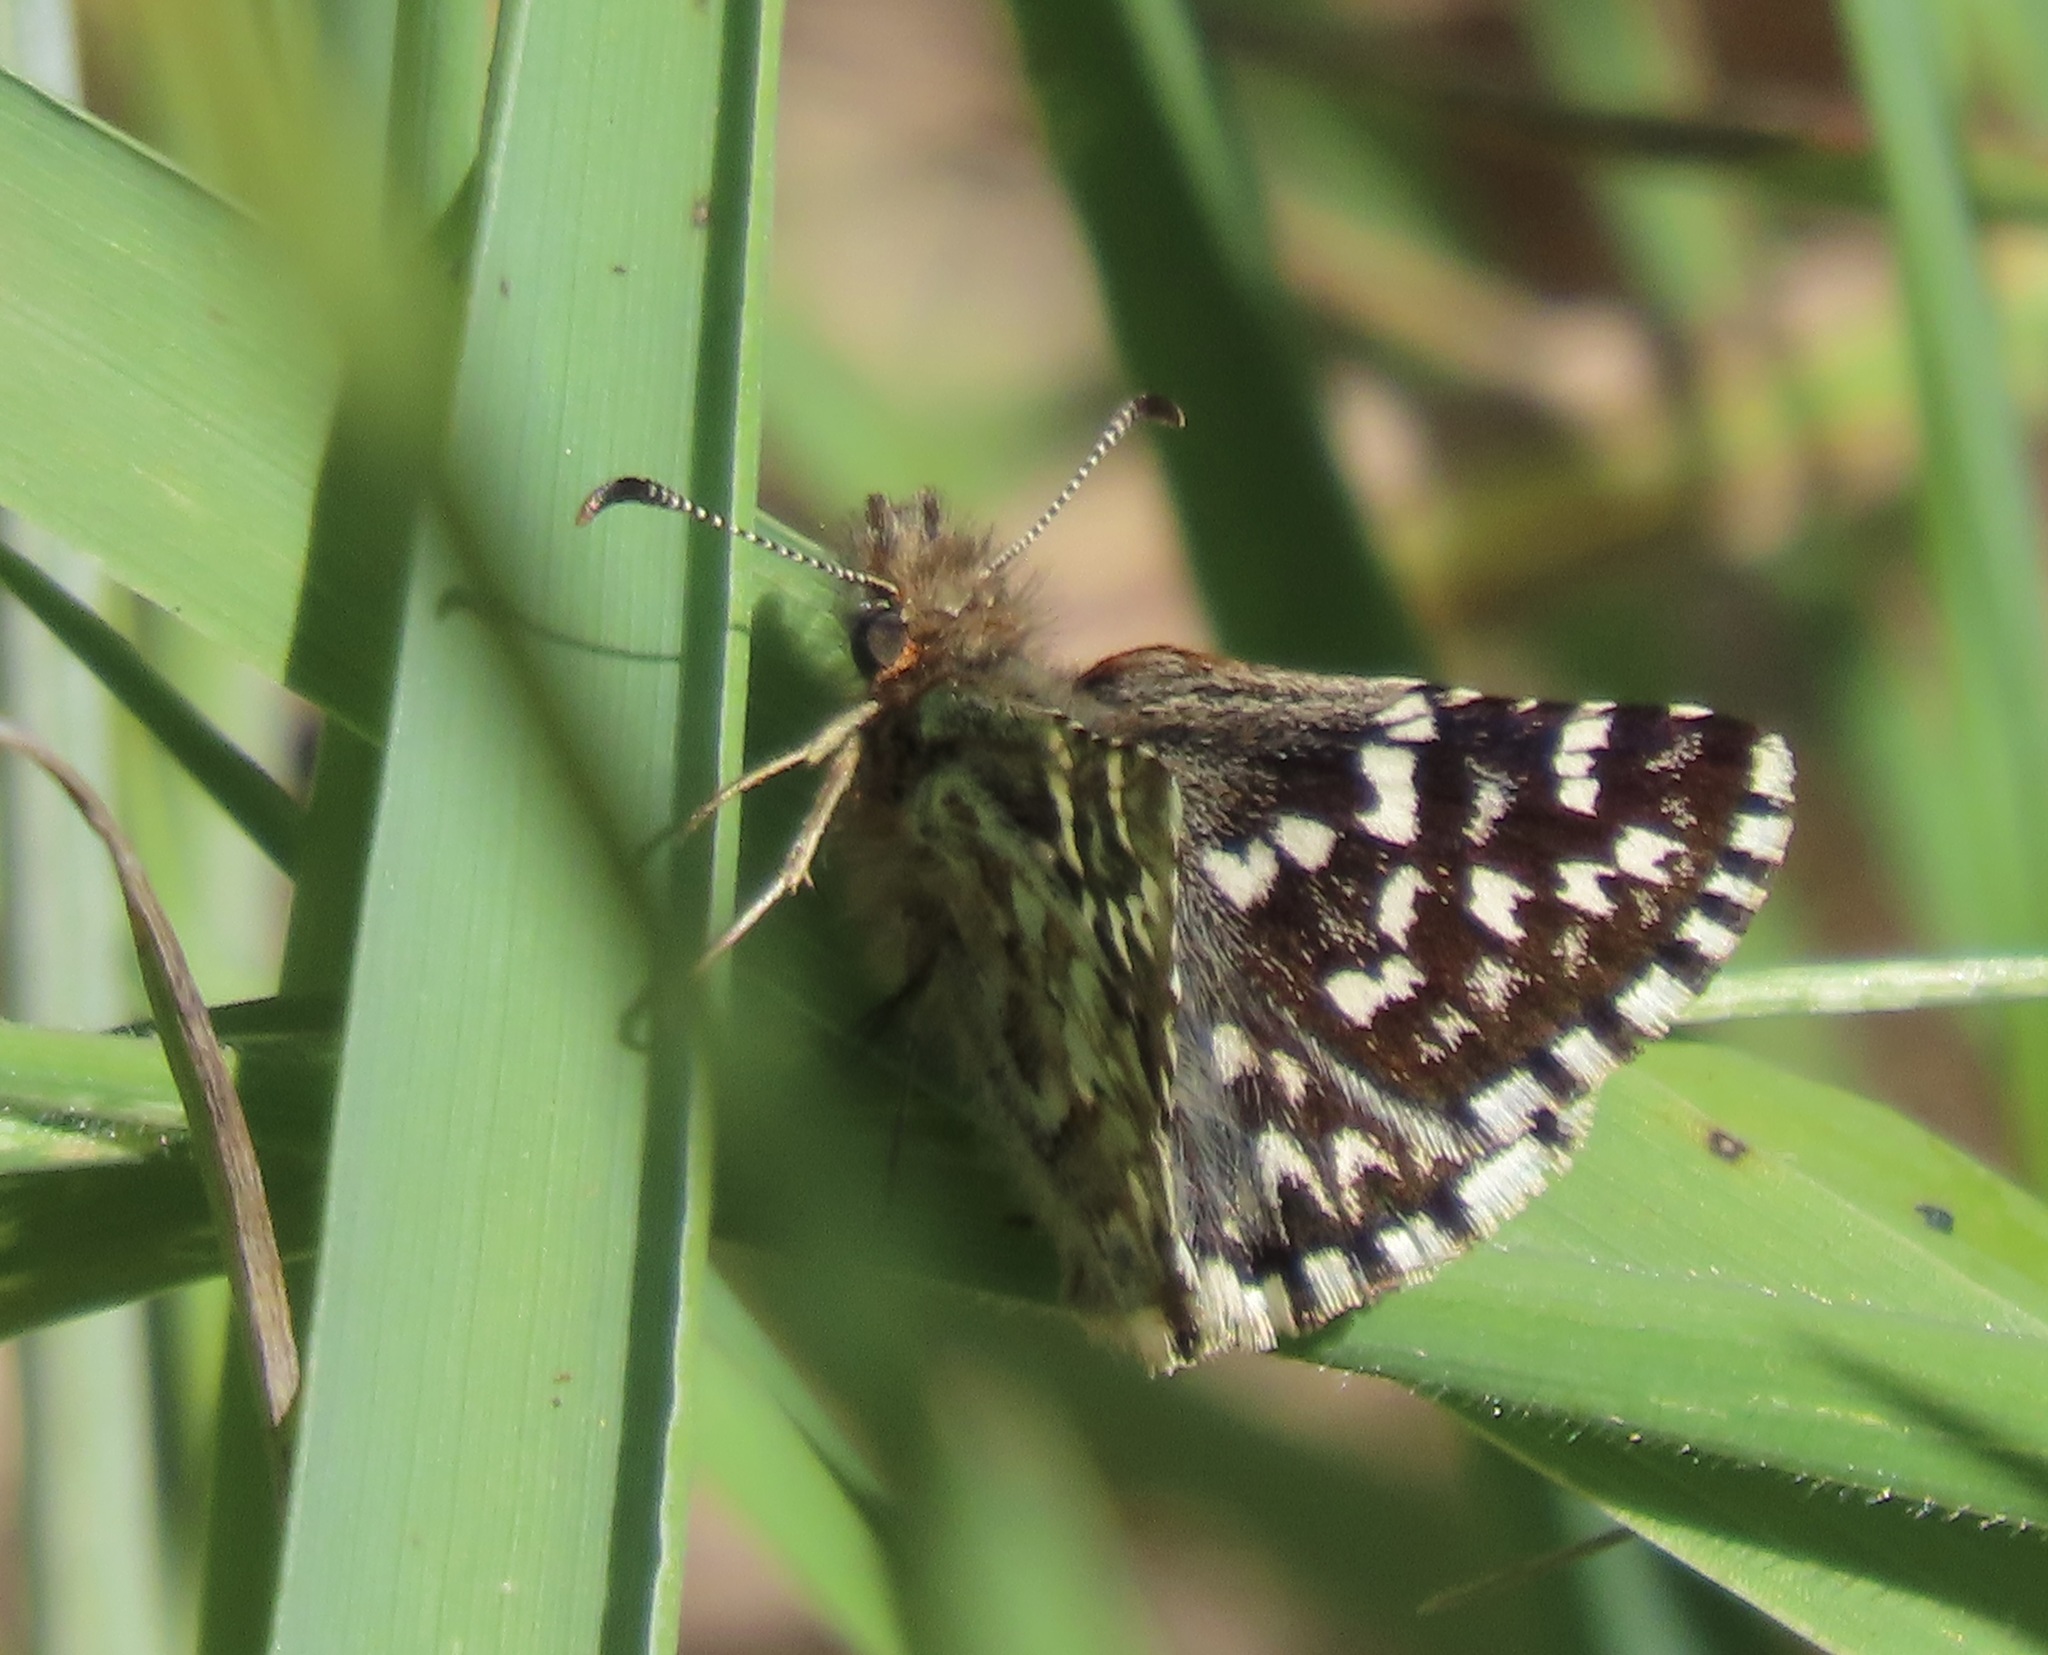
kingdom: Animalia
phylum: Arthropoda
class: Insecta
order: Lepidoptera
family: Hesperiidae
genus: Pyrgus
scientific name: Pyrgus ruralis
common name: Two-banded checkered-skipper
